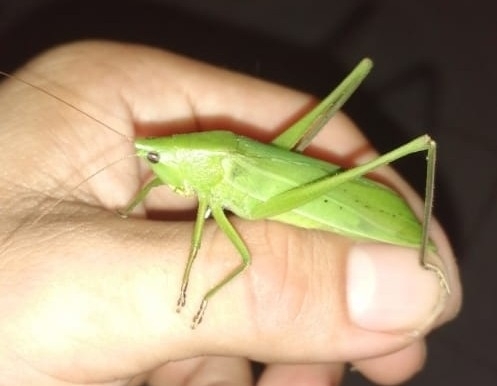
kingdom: Animalia
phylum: Arthropoda
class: Insecta
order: Orthoptera
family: Tettigoniidae
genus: Neoconocephalus
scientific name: Neoconocephalus triops
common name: Broad-tipped conehead
